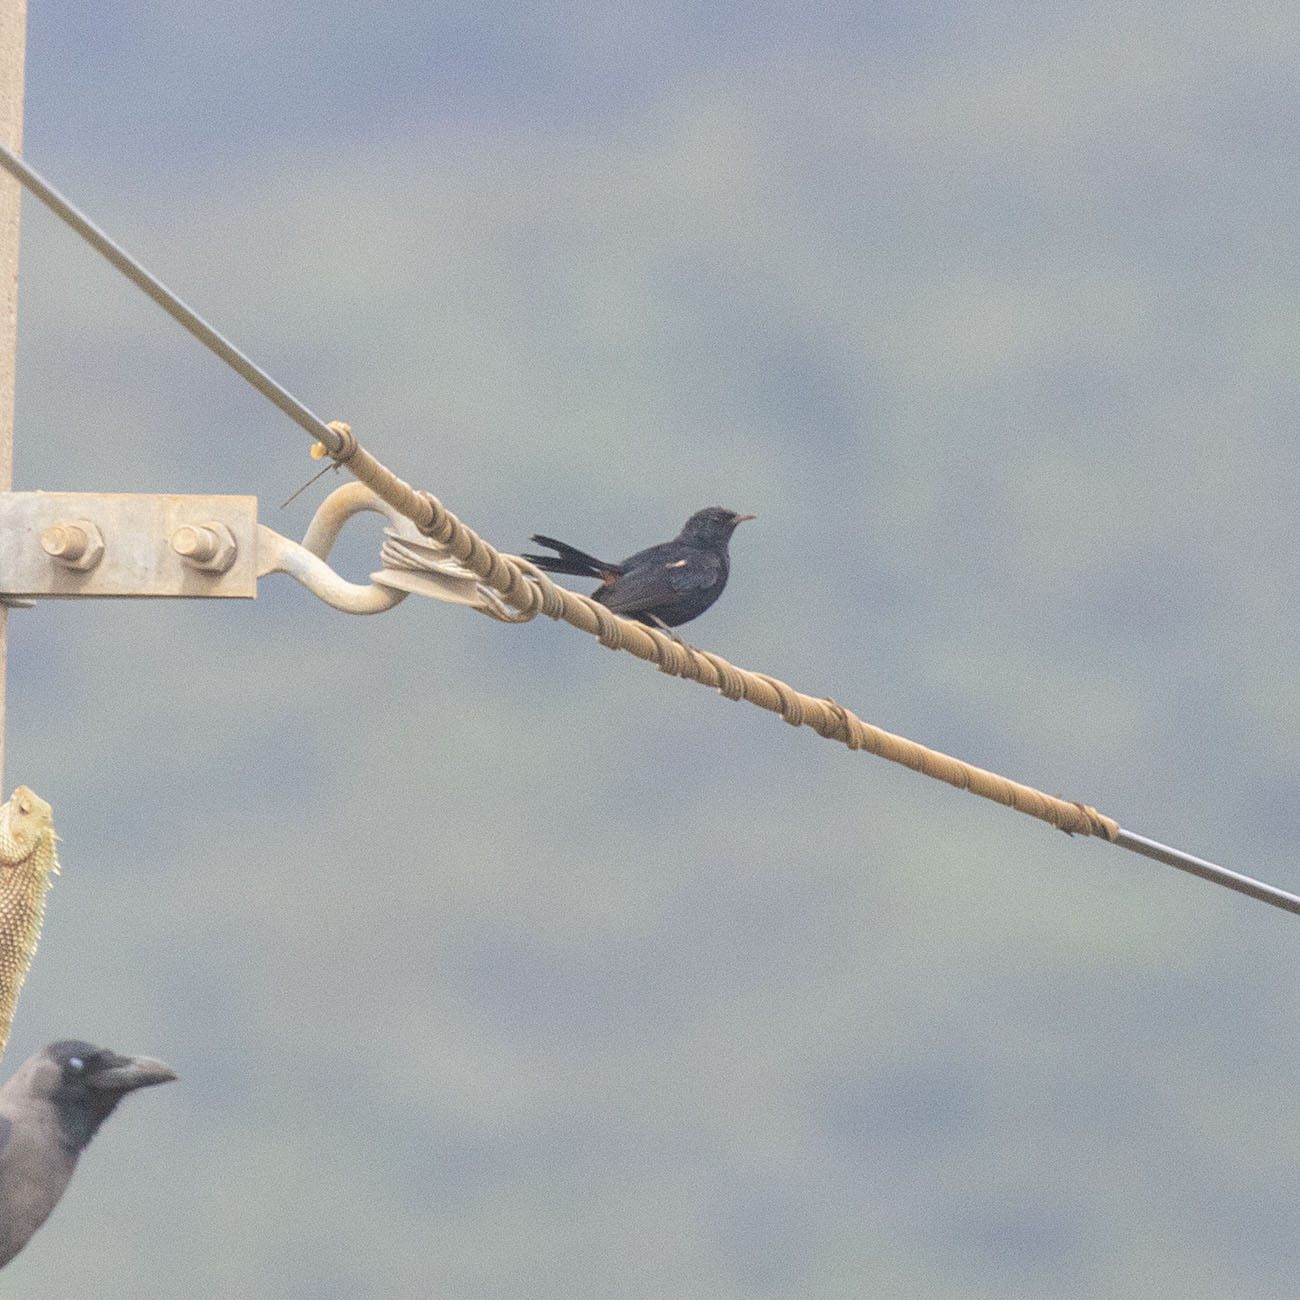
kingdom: Animalia
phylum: Chordata
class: Aves
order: Passeriformes
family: Muscicapidae
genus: Saxicoloides
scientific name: Saxicoloides fulicatus
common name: Indian robin
